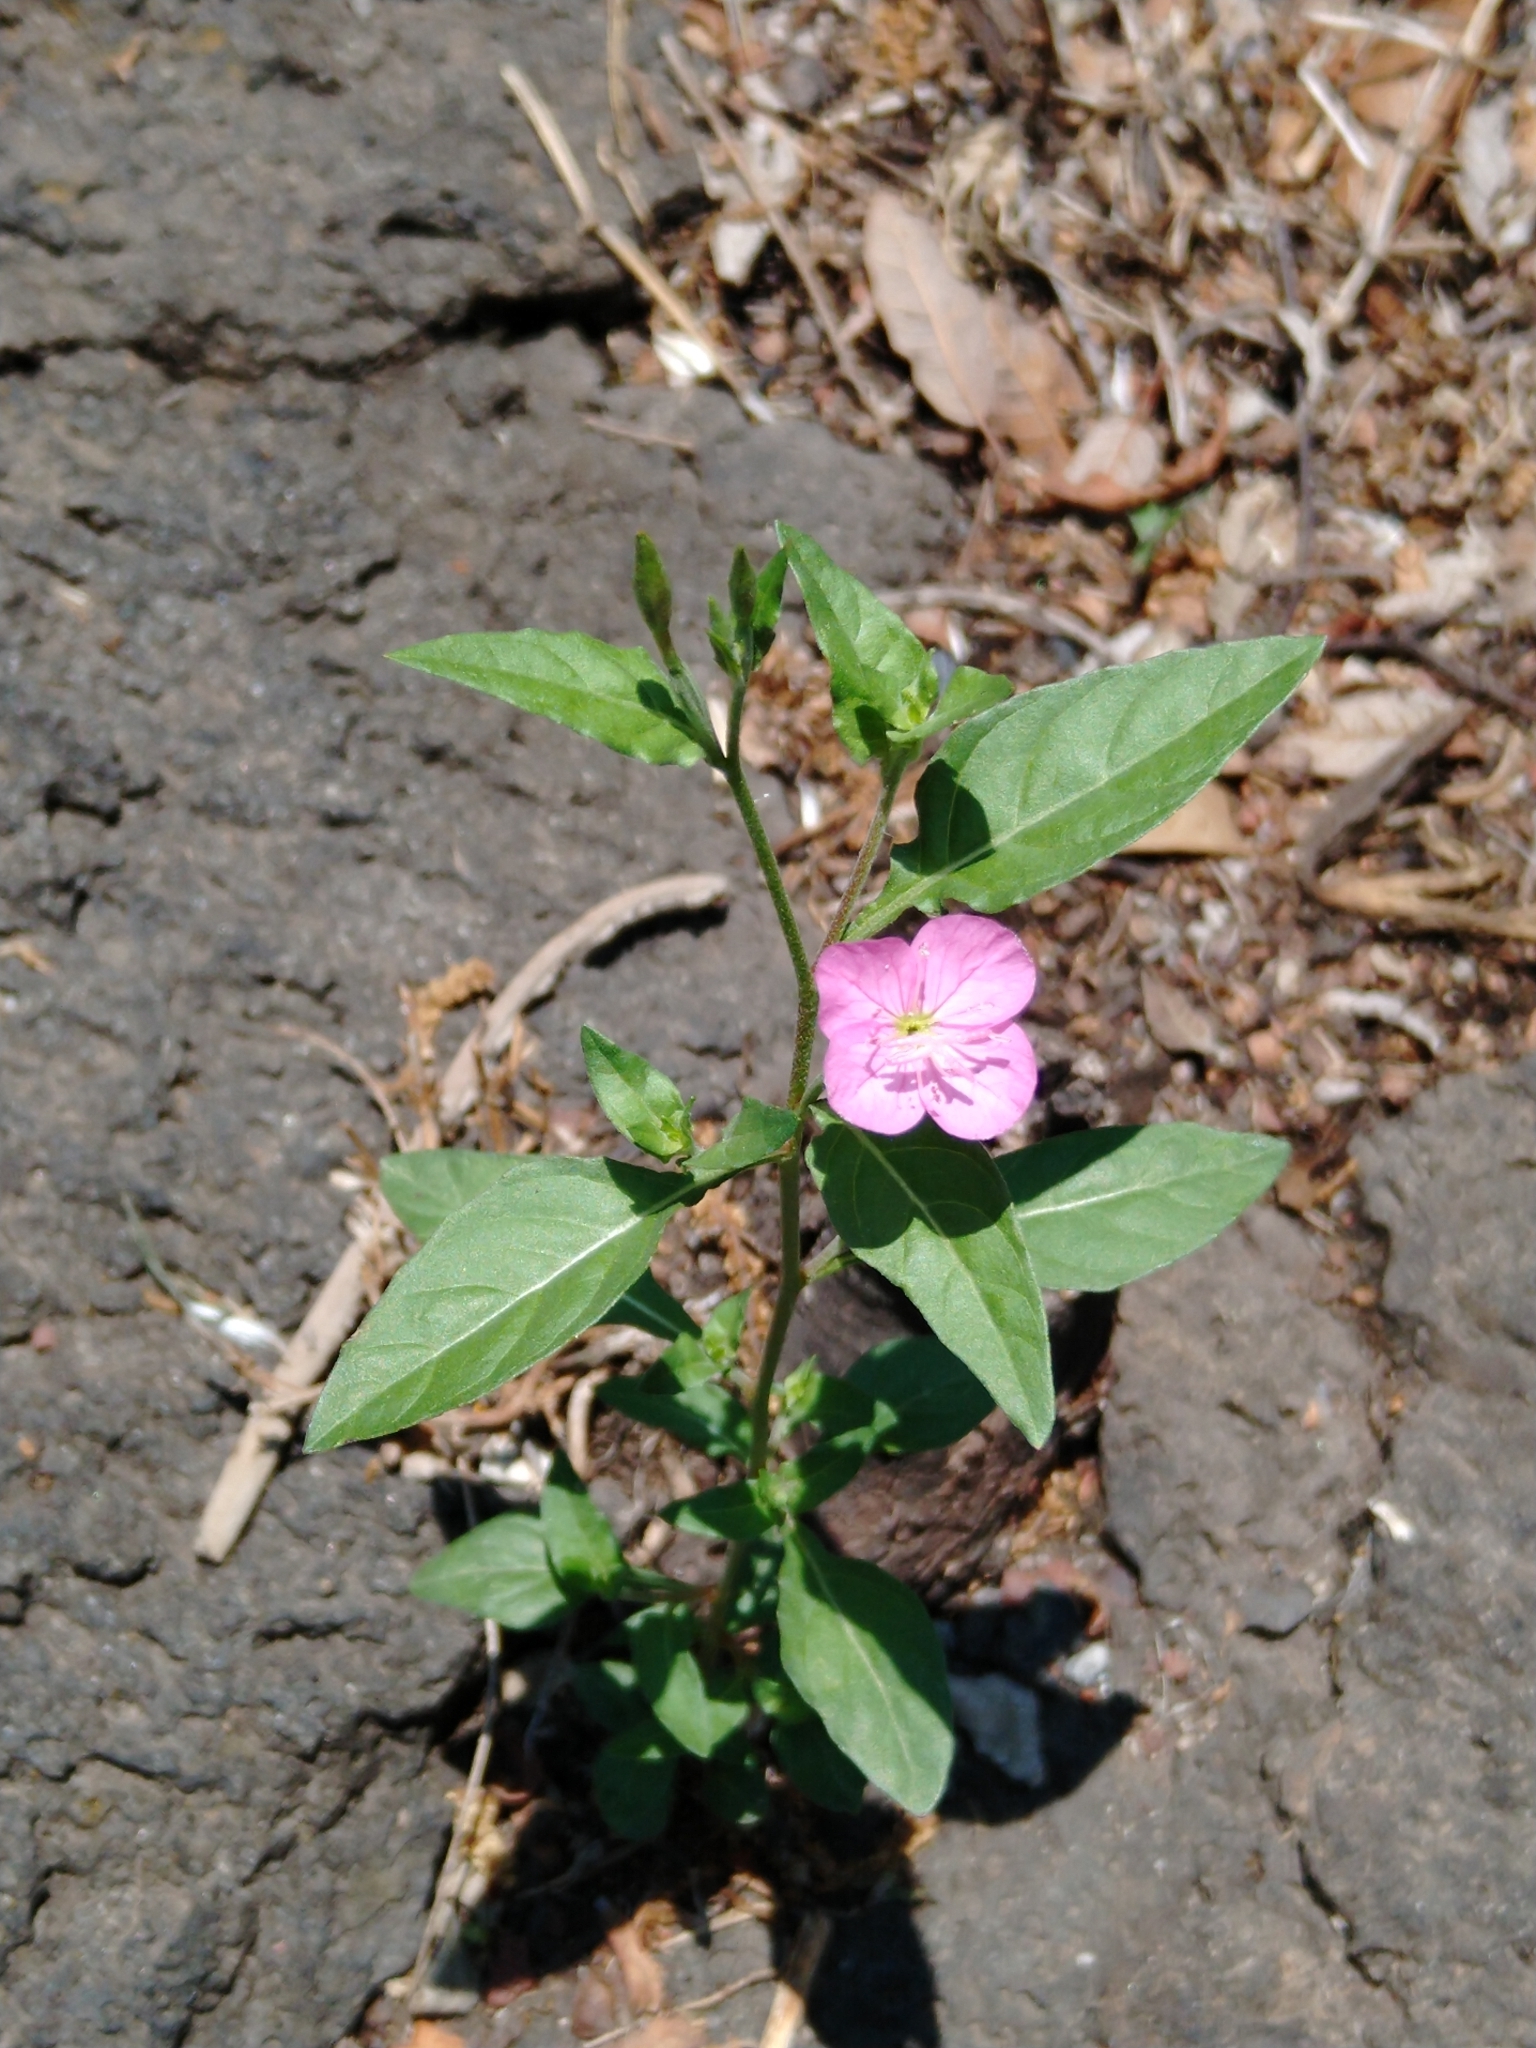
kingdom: Plantae
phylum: Tracheophyta
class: Magnoliopsida
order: Myrtales
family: Onagraceae
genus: Oenothera
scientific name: Oenothera rosea
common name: Rosy evening-primrose
